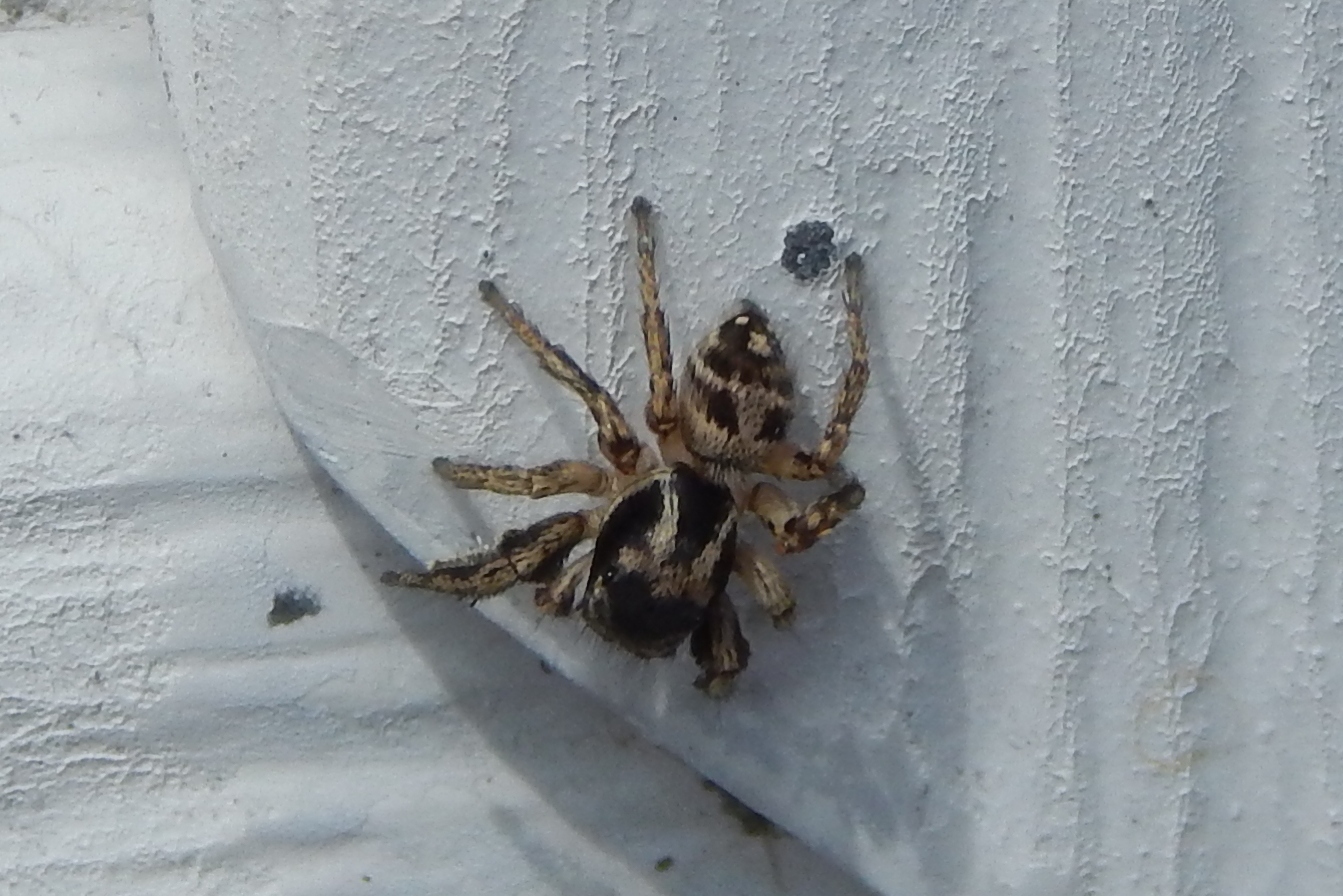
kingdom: Animalia
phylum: Arthropoda
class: Arachnida
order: Araneae
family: Salticidae
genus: Habronattus
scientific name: Habronattus
